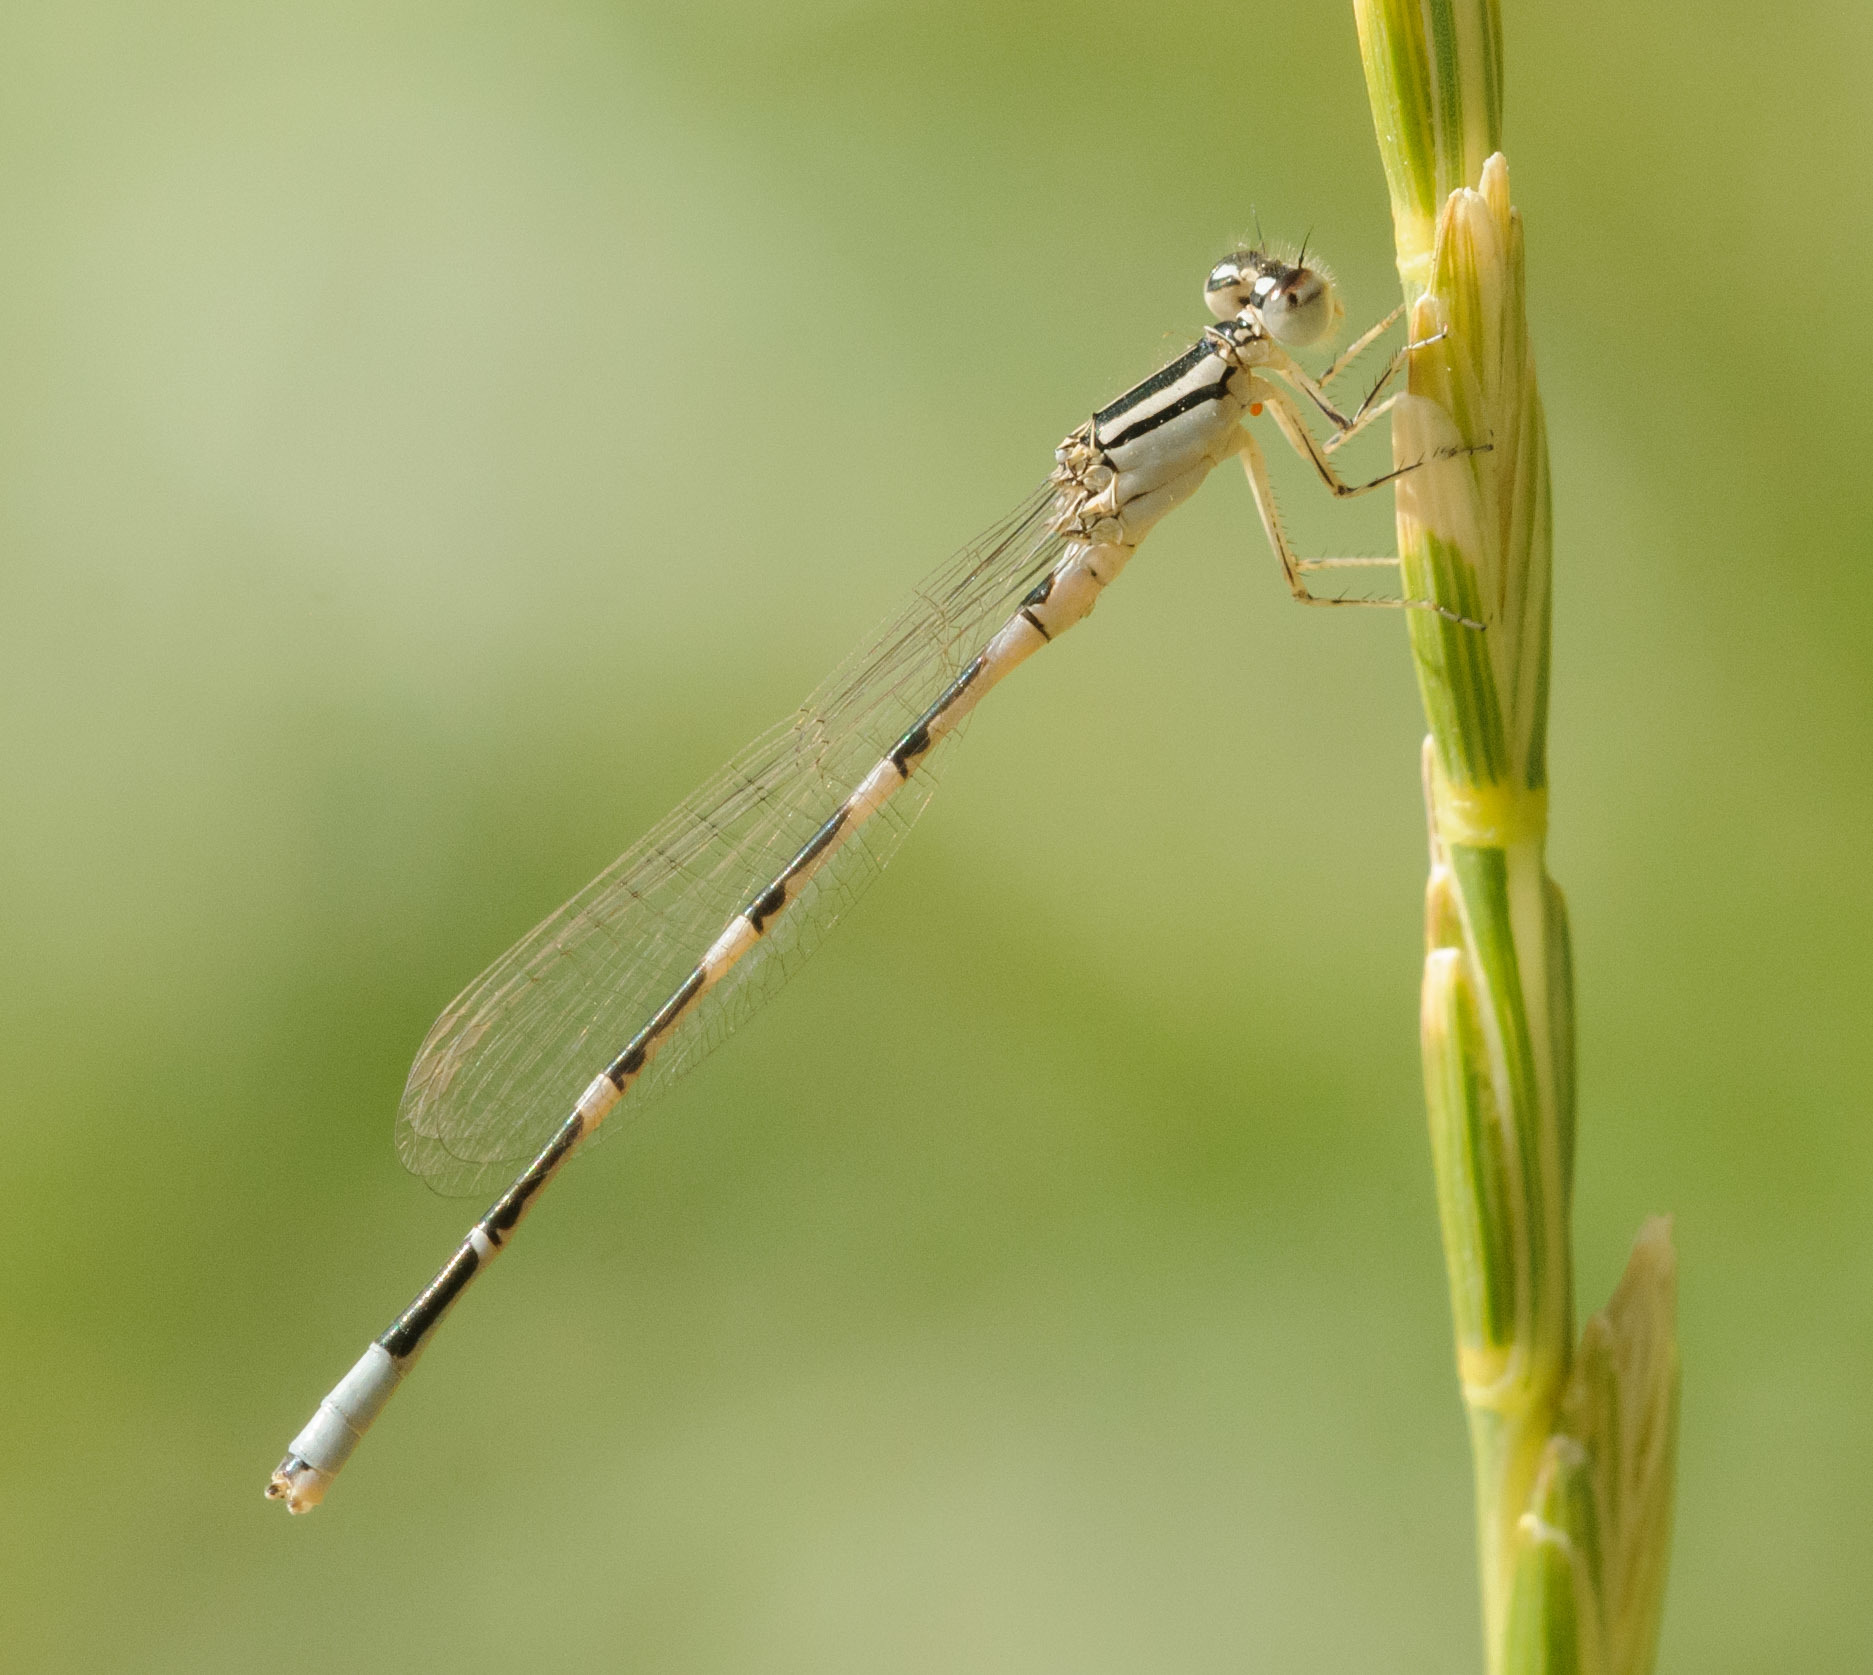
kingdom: Animalia
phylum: Arthropoda
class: Insecta
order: Odonata
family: Coenagrionidae
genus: Enallagma
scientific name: Enallagma carunculatum
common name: Tule bluet
